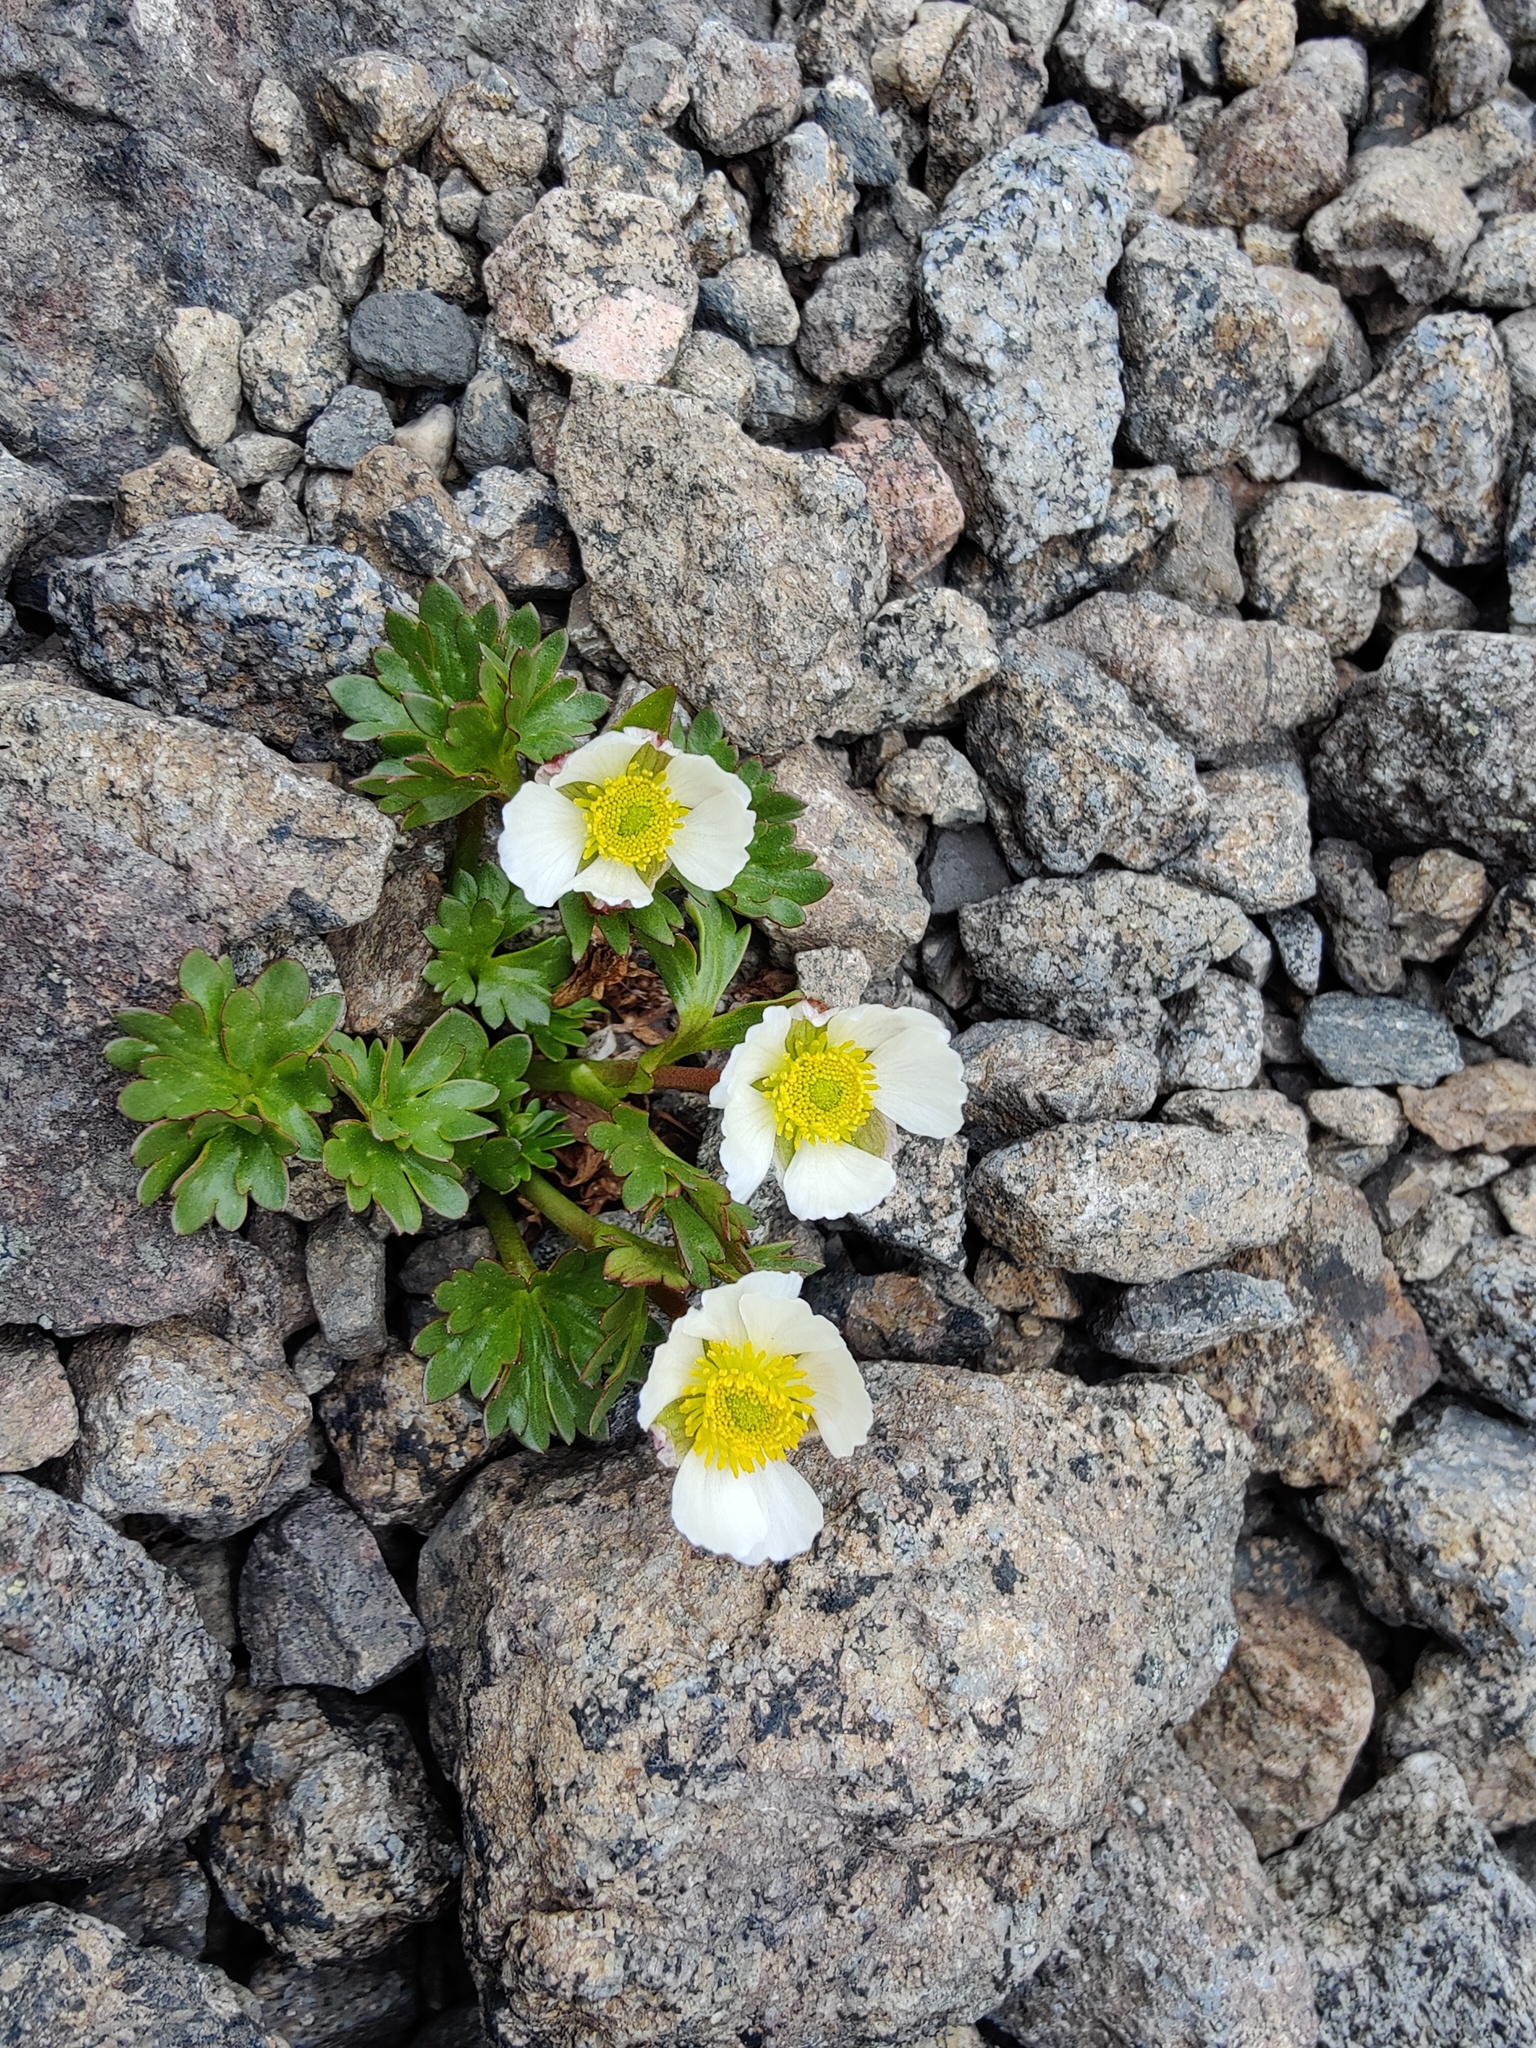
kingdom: Plantae
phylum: Tracheophyta
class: Magnoliopsida
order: Ranunculales
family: Ranunculaceae
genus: Ranunculus
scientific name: Ranunculus glacialis
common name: Glacier buttercup
